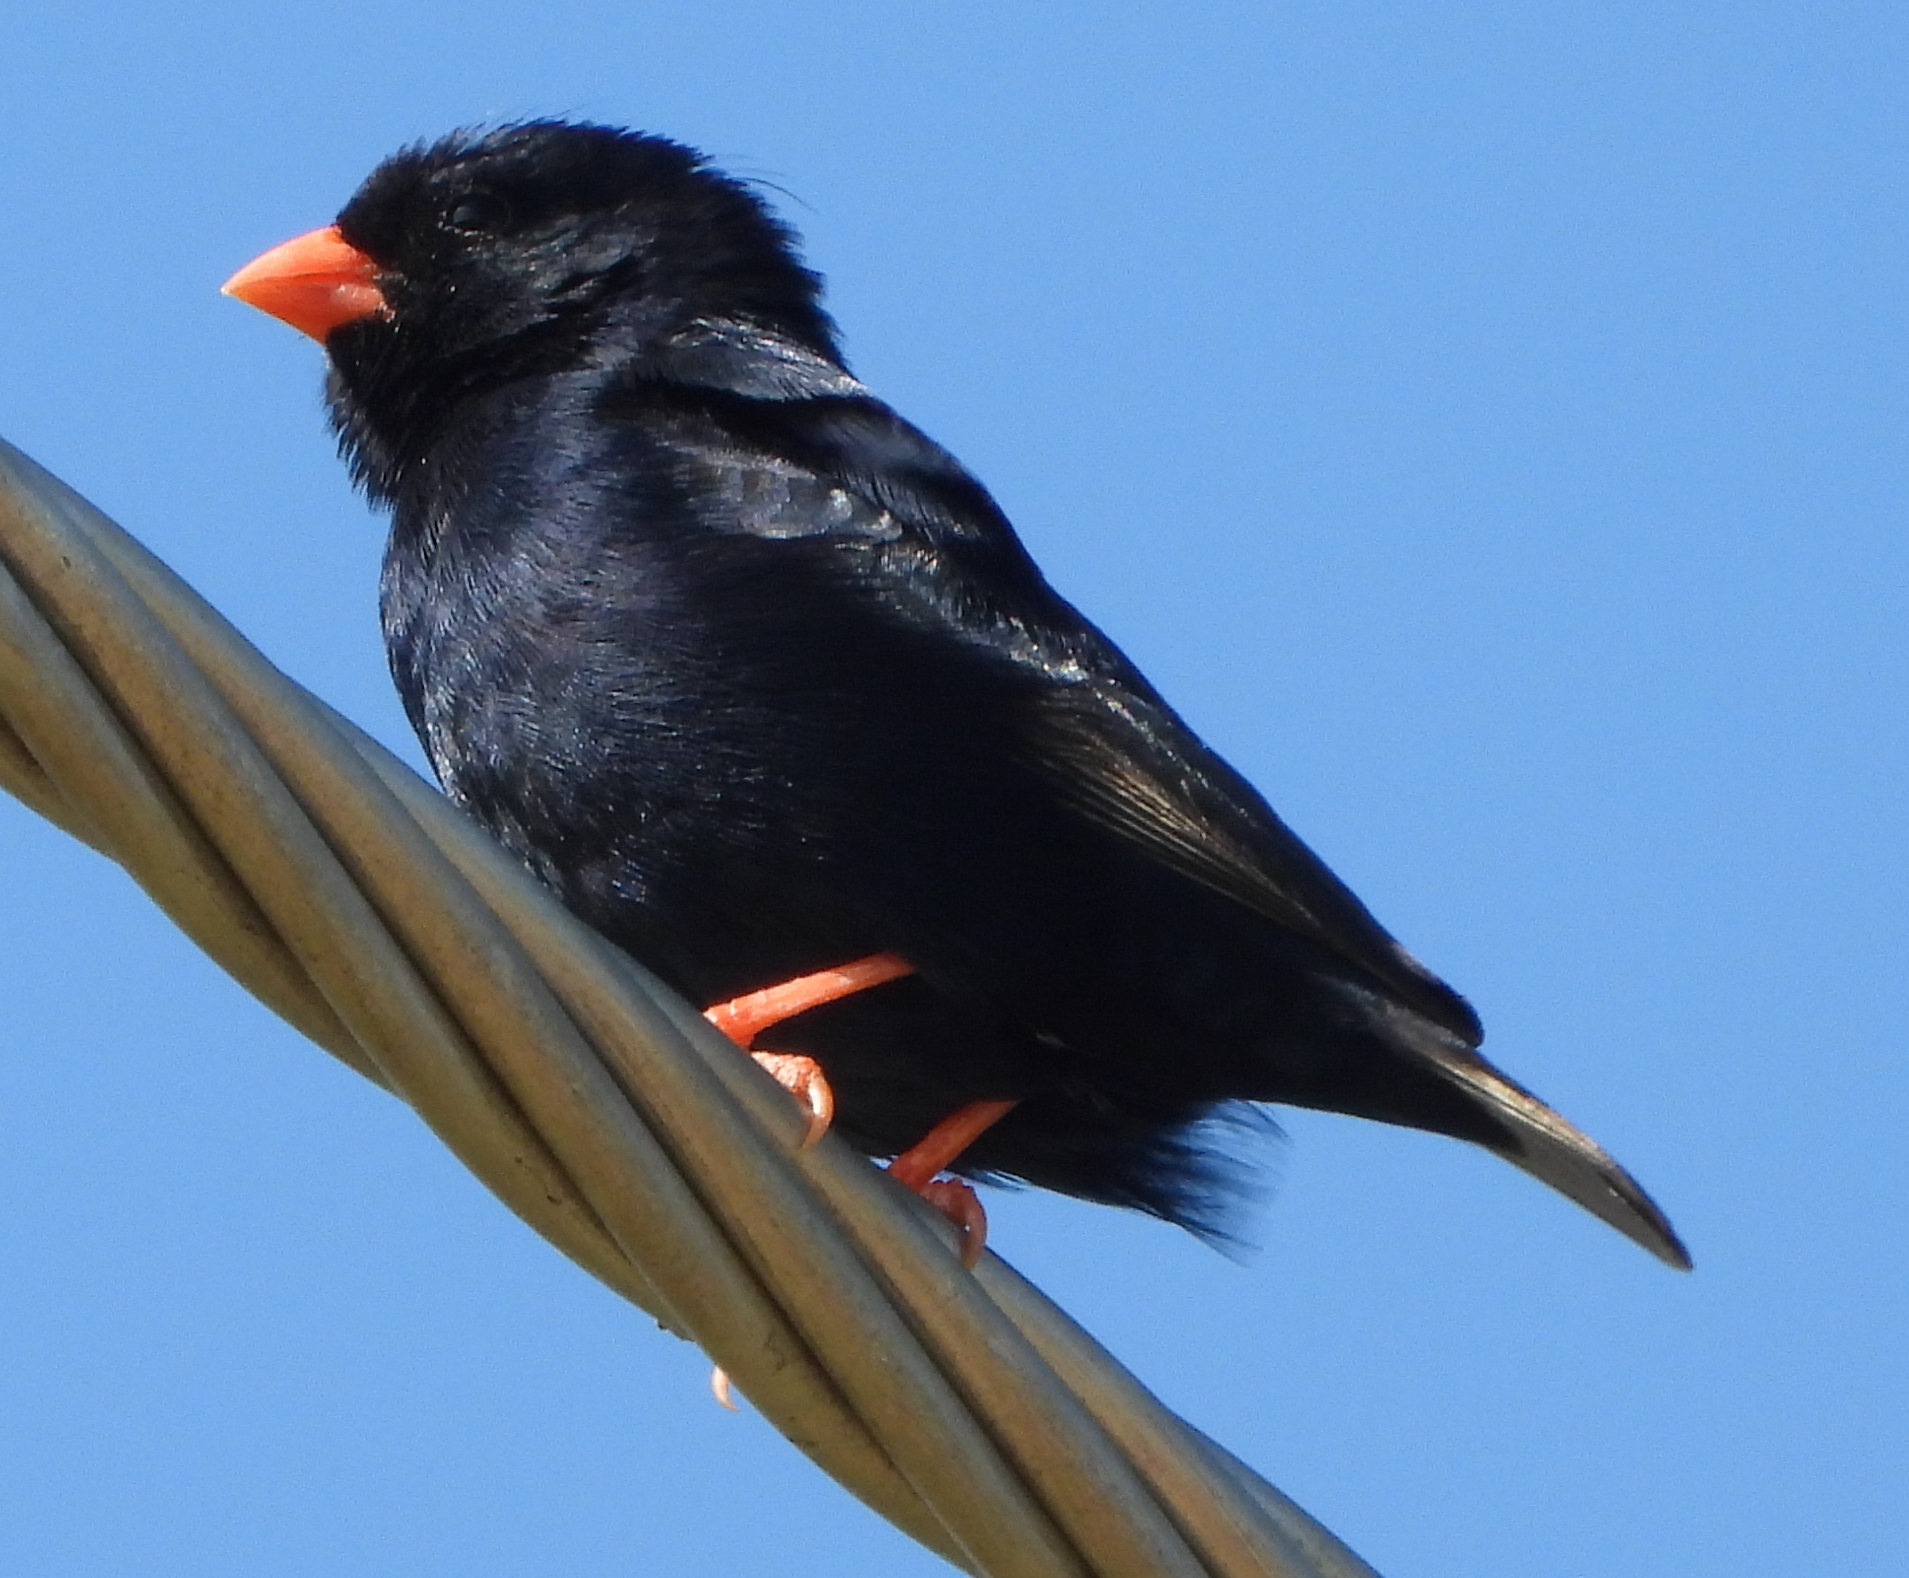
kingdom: Animalia
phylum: Chordata
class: Aves
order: Passeriformes
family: Viduidae
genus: Vidua
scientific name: Vidua chalybeata
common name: Village indigobird
